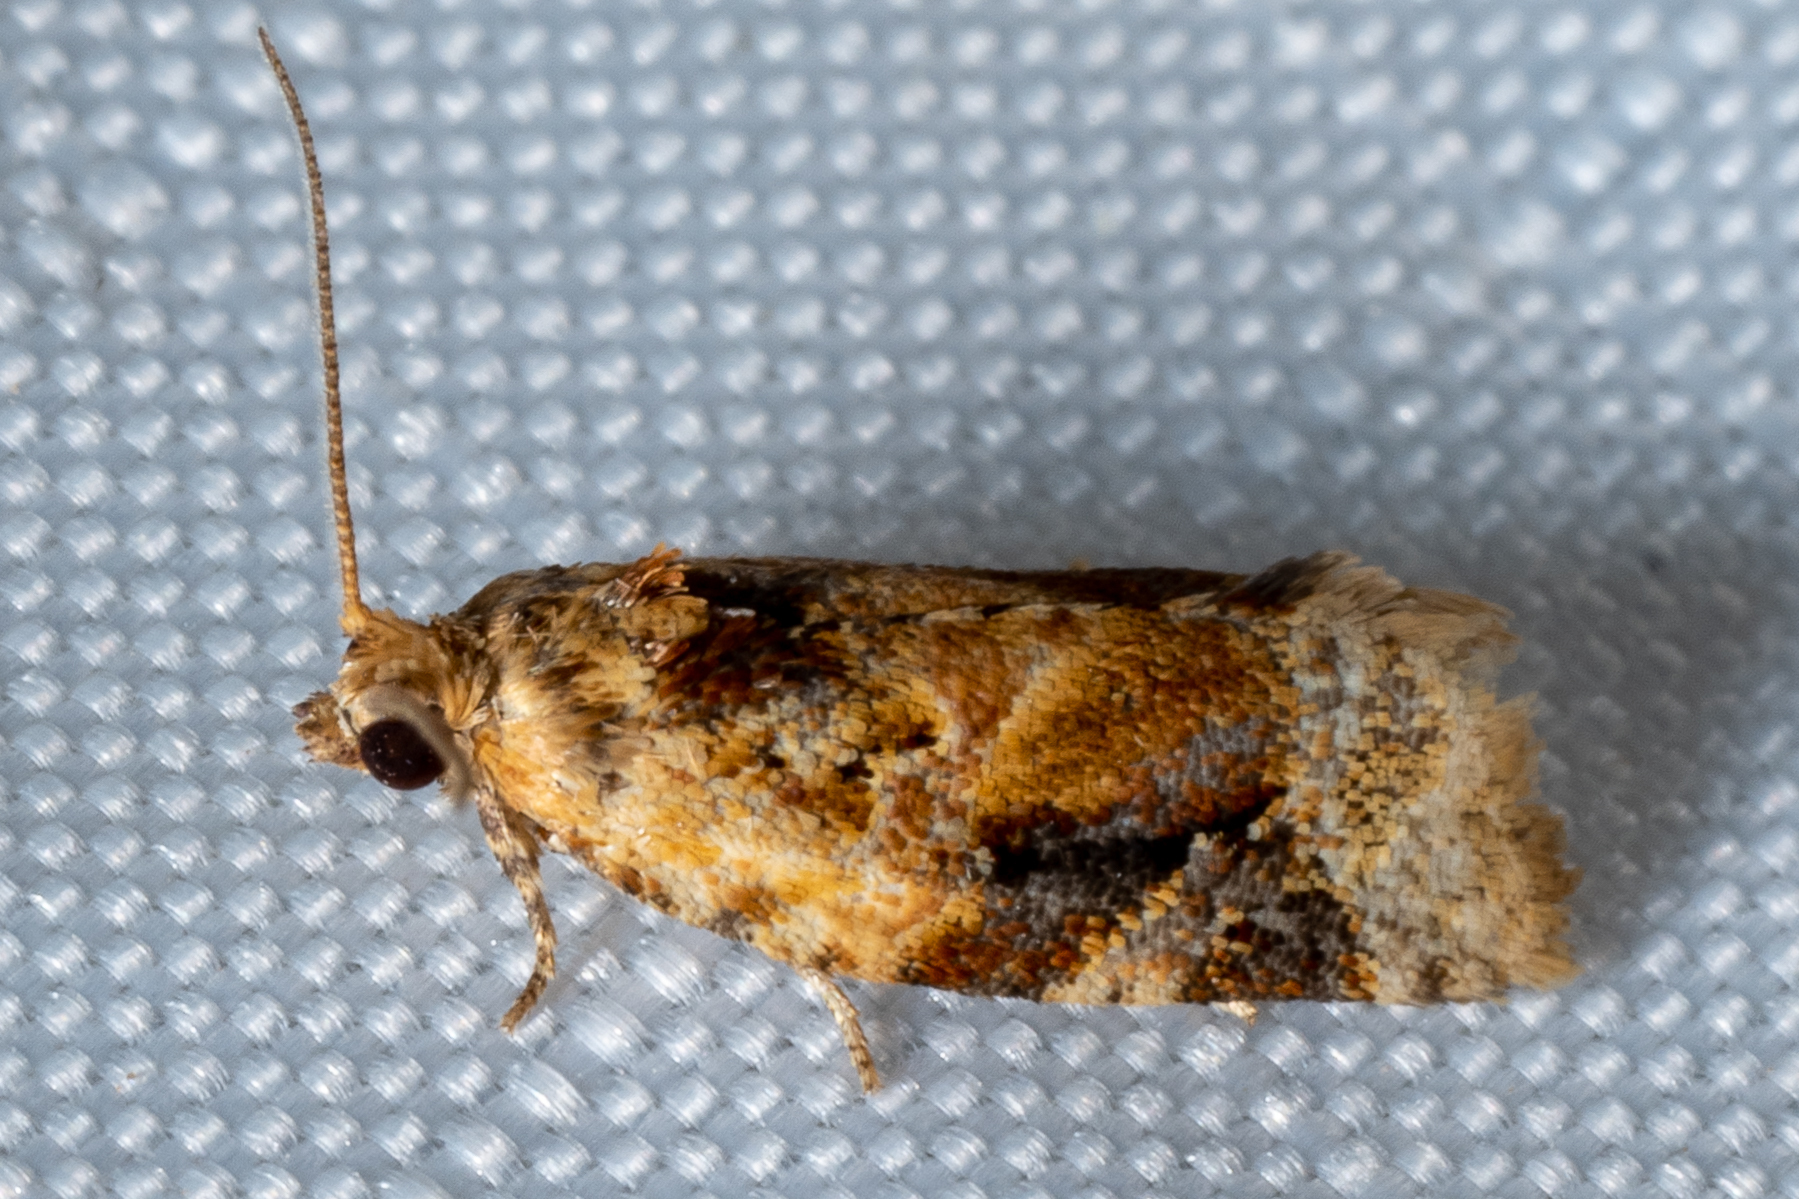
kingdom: Animalia
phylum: Arthropoda
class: Insecta
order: Lepidoptera
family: Tortricidae
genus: Argyrotaenia
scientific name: Argyrotaenia velutinana
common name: Red-banded leafroller moth
